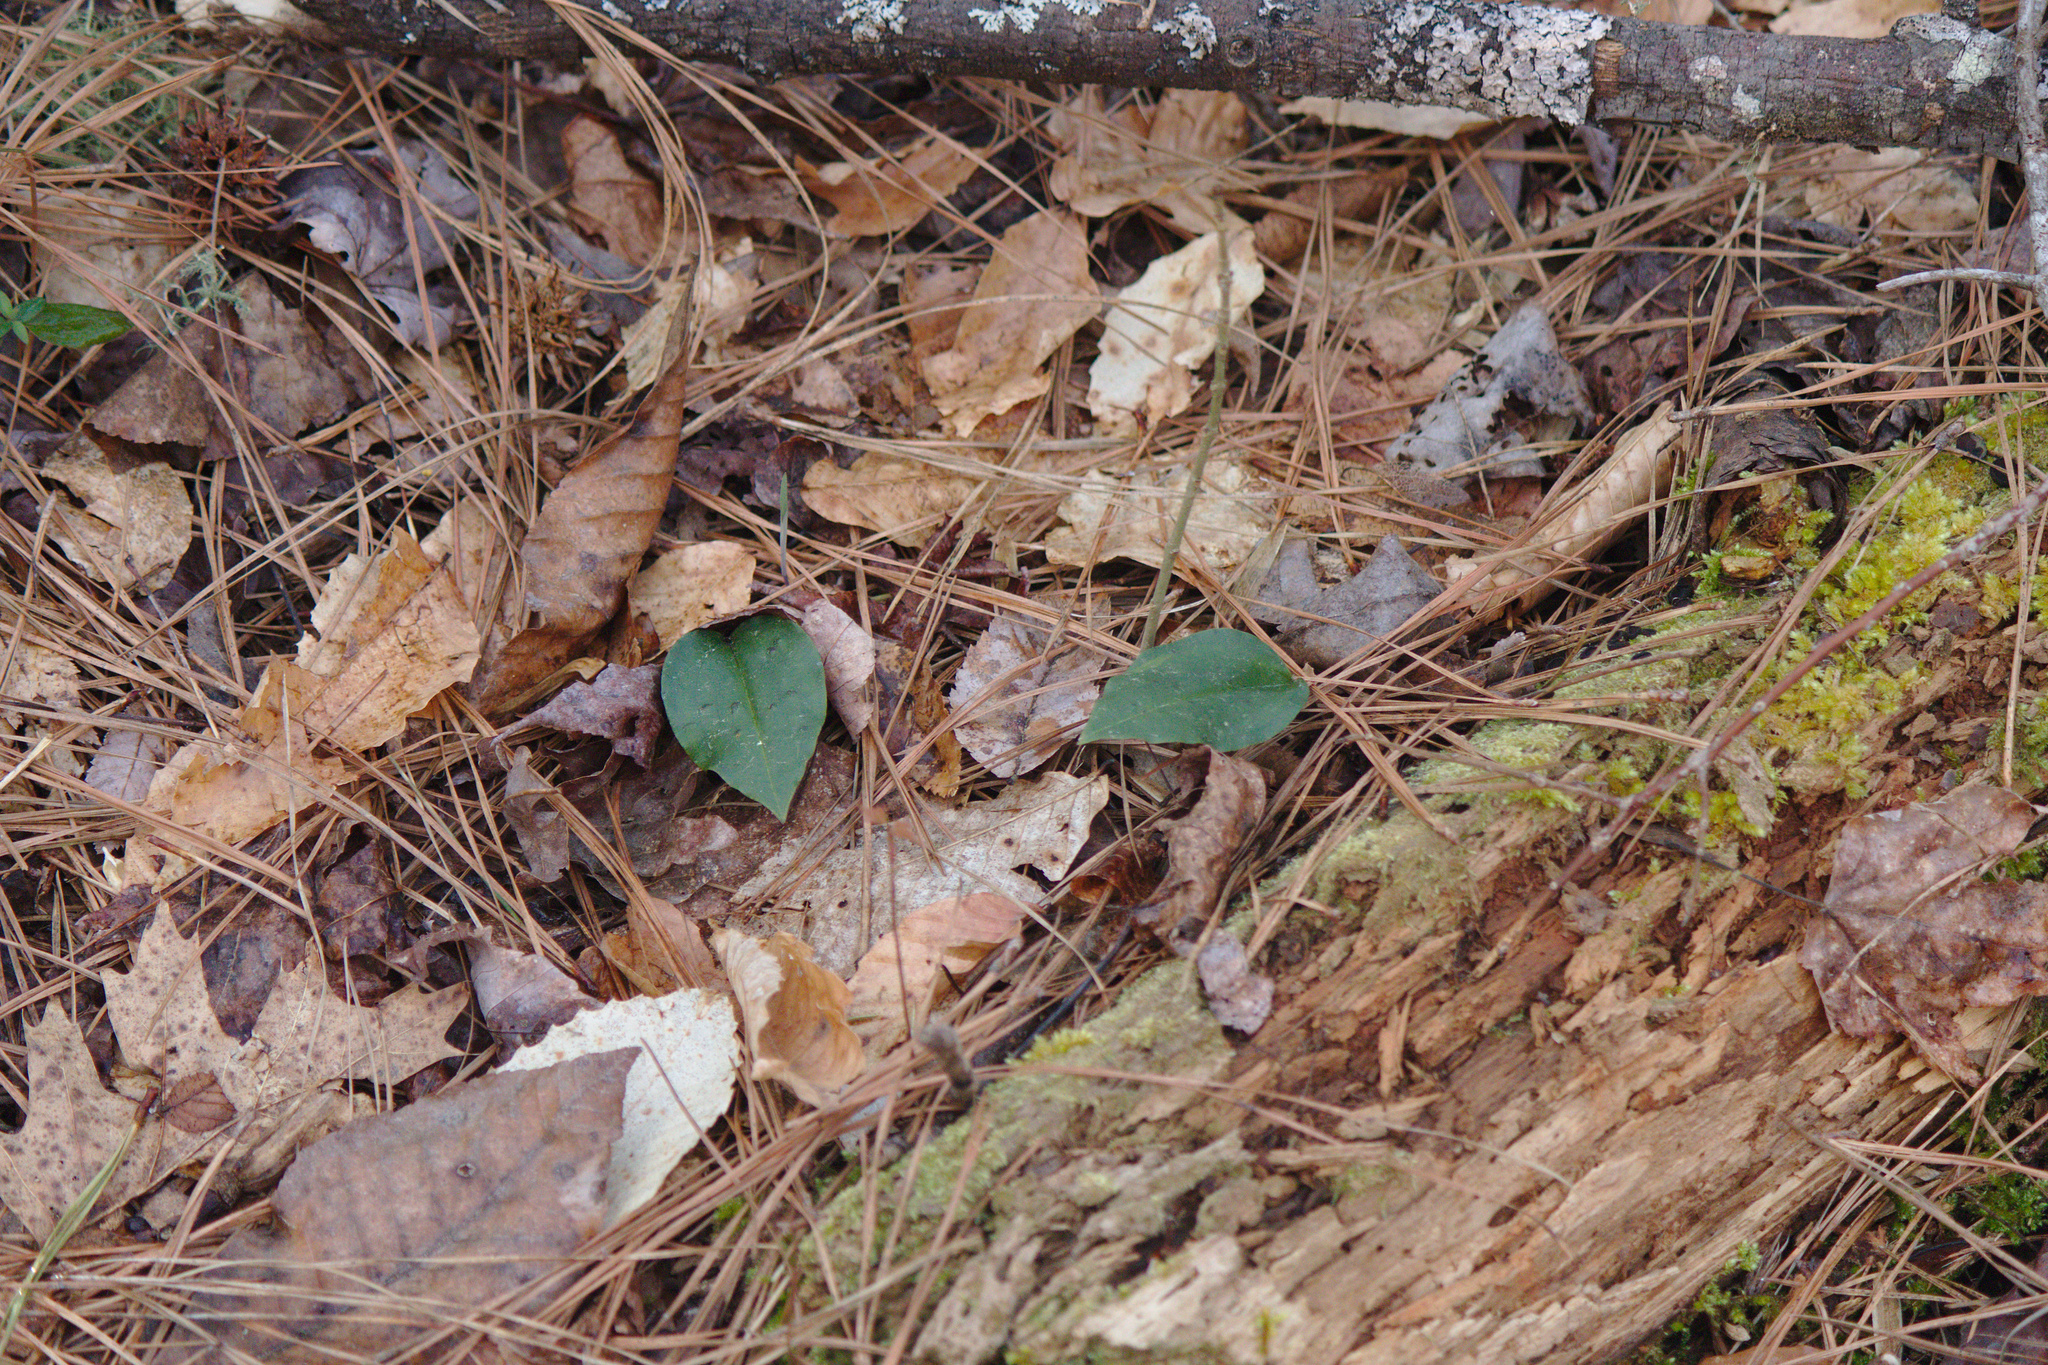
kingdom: Plantae
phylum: Tracheophyta
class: Liliopsida
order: Asparagales
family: Orchidaceae
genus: Tipularia
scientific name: Tipularia discolor
